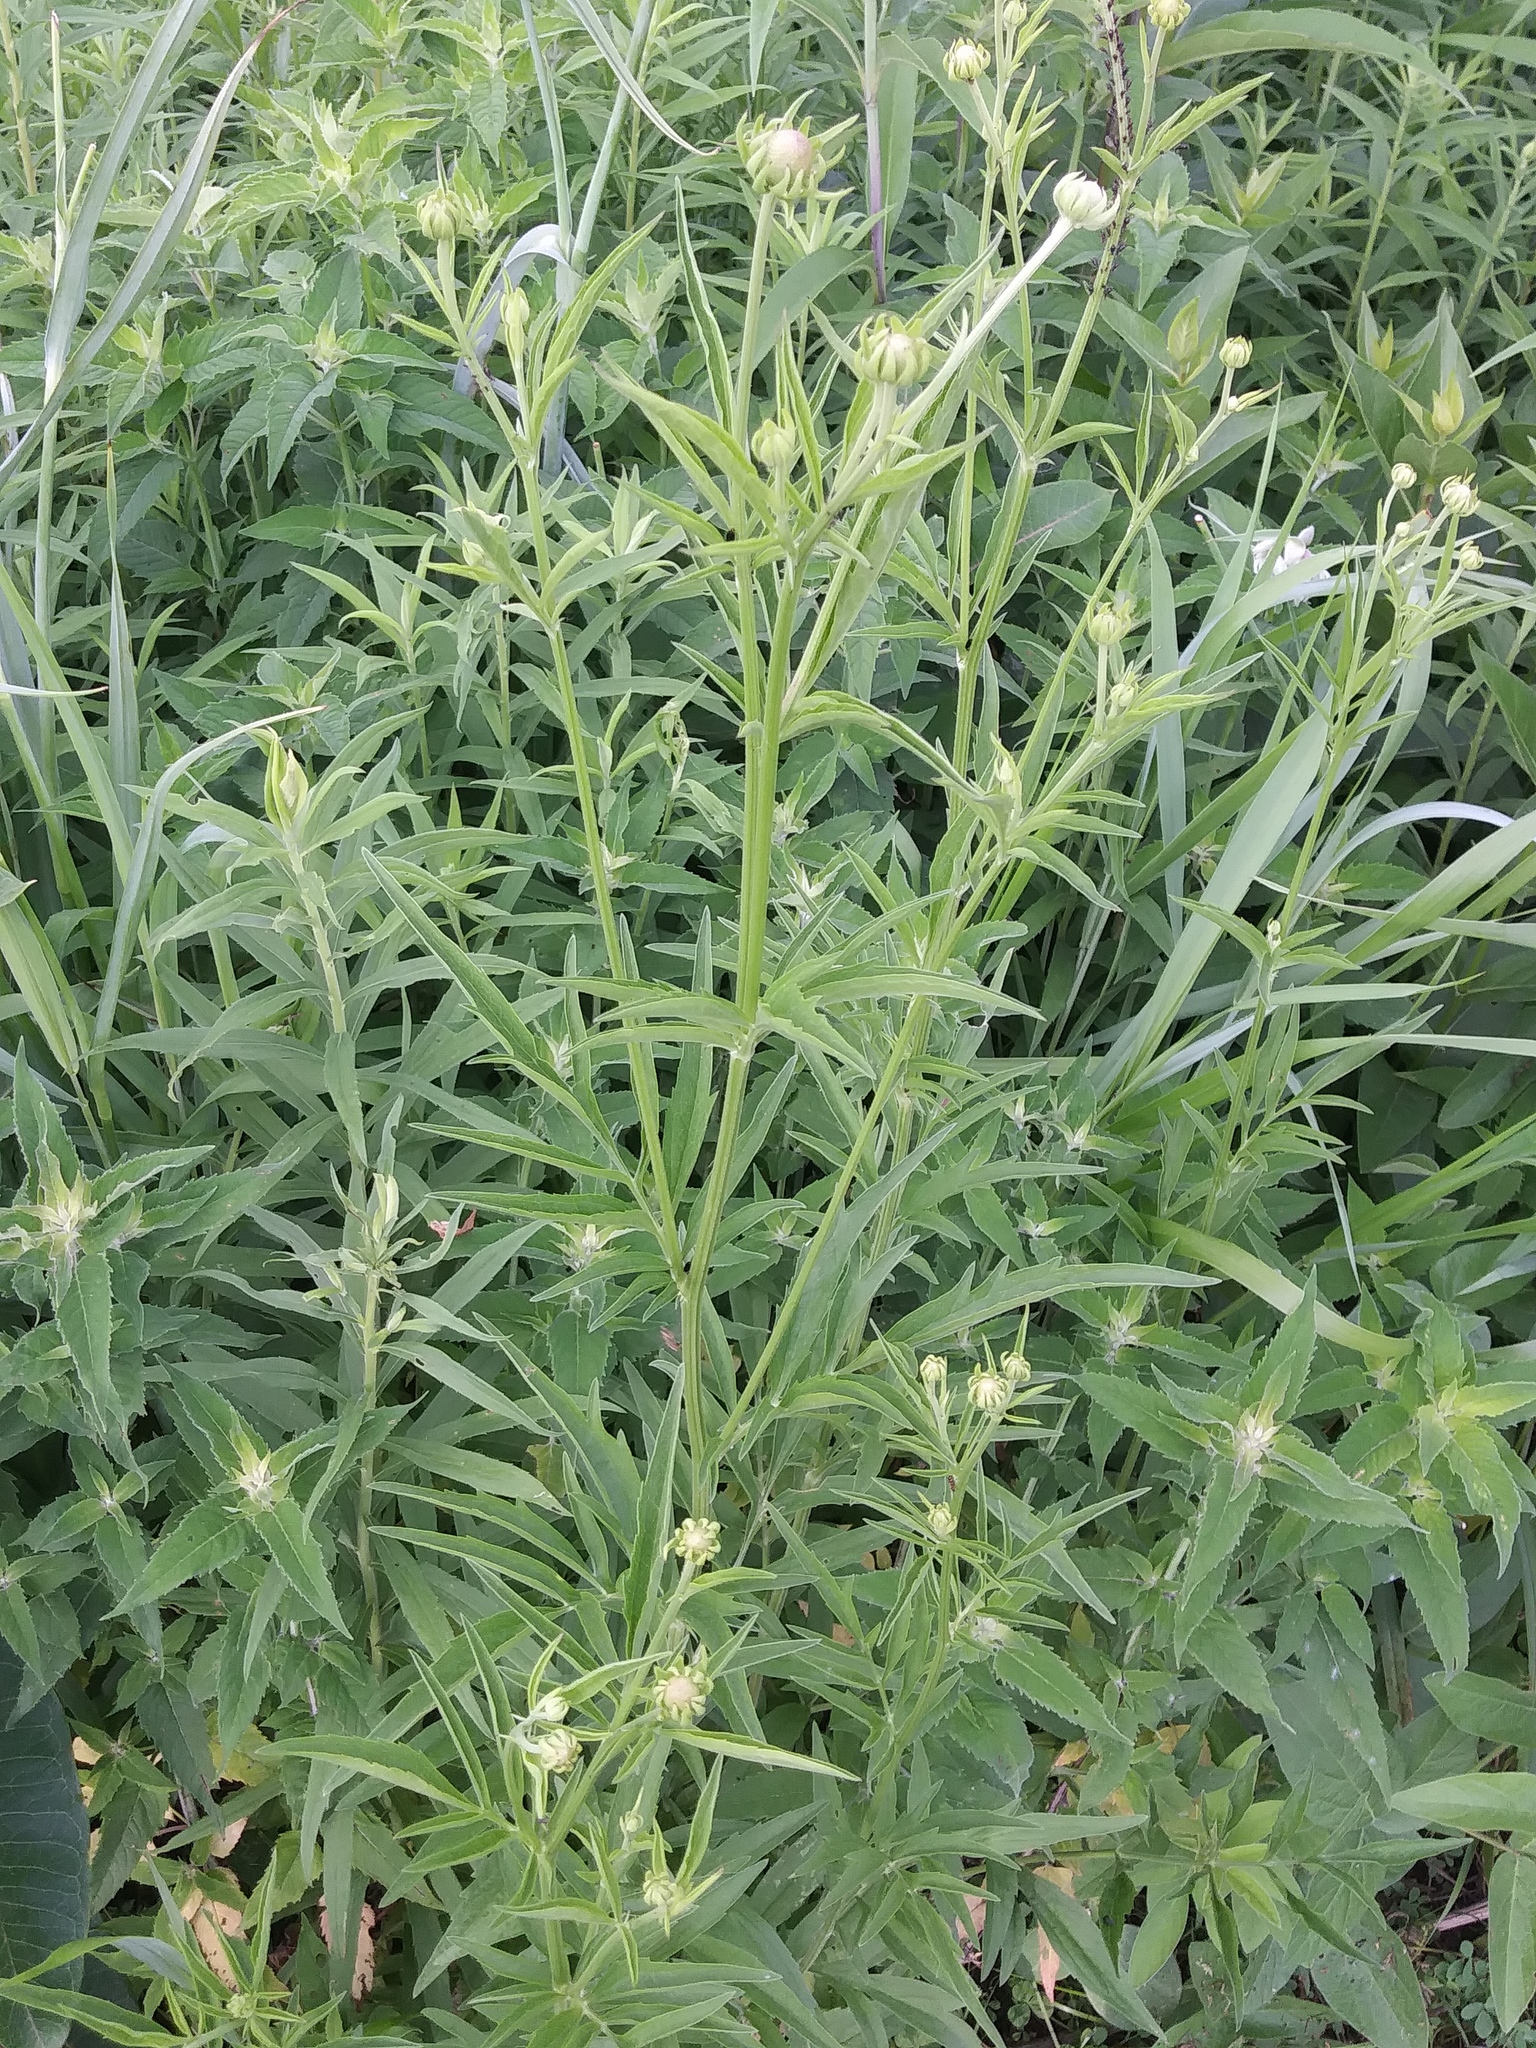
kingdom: Plantae
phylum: Tracheophyta
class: Magnoliopsida
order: Asterales
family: Asteraceae
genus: Ratibida
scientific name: Ratibida pinnata
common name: Drooping prairie-coneflower
